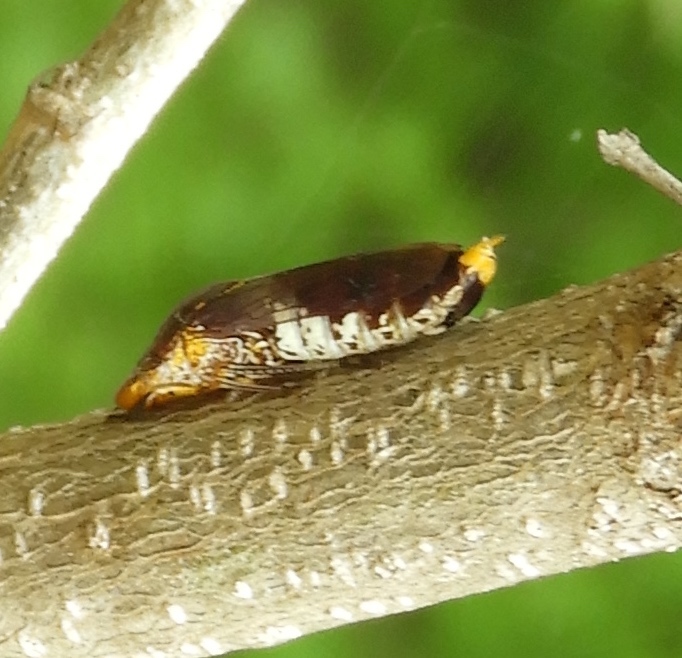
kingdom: Animalia
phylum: Arthropoda
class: Insecta
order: Hemiptera
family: Cicadellidae
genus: Homalodisca
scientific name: Homalodisca ichthyocephala
